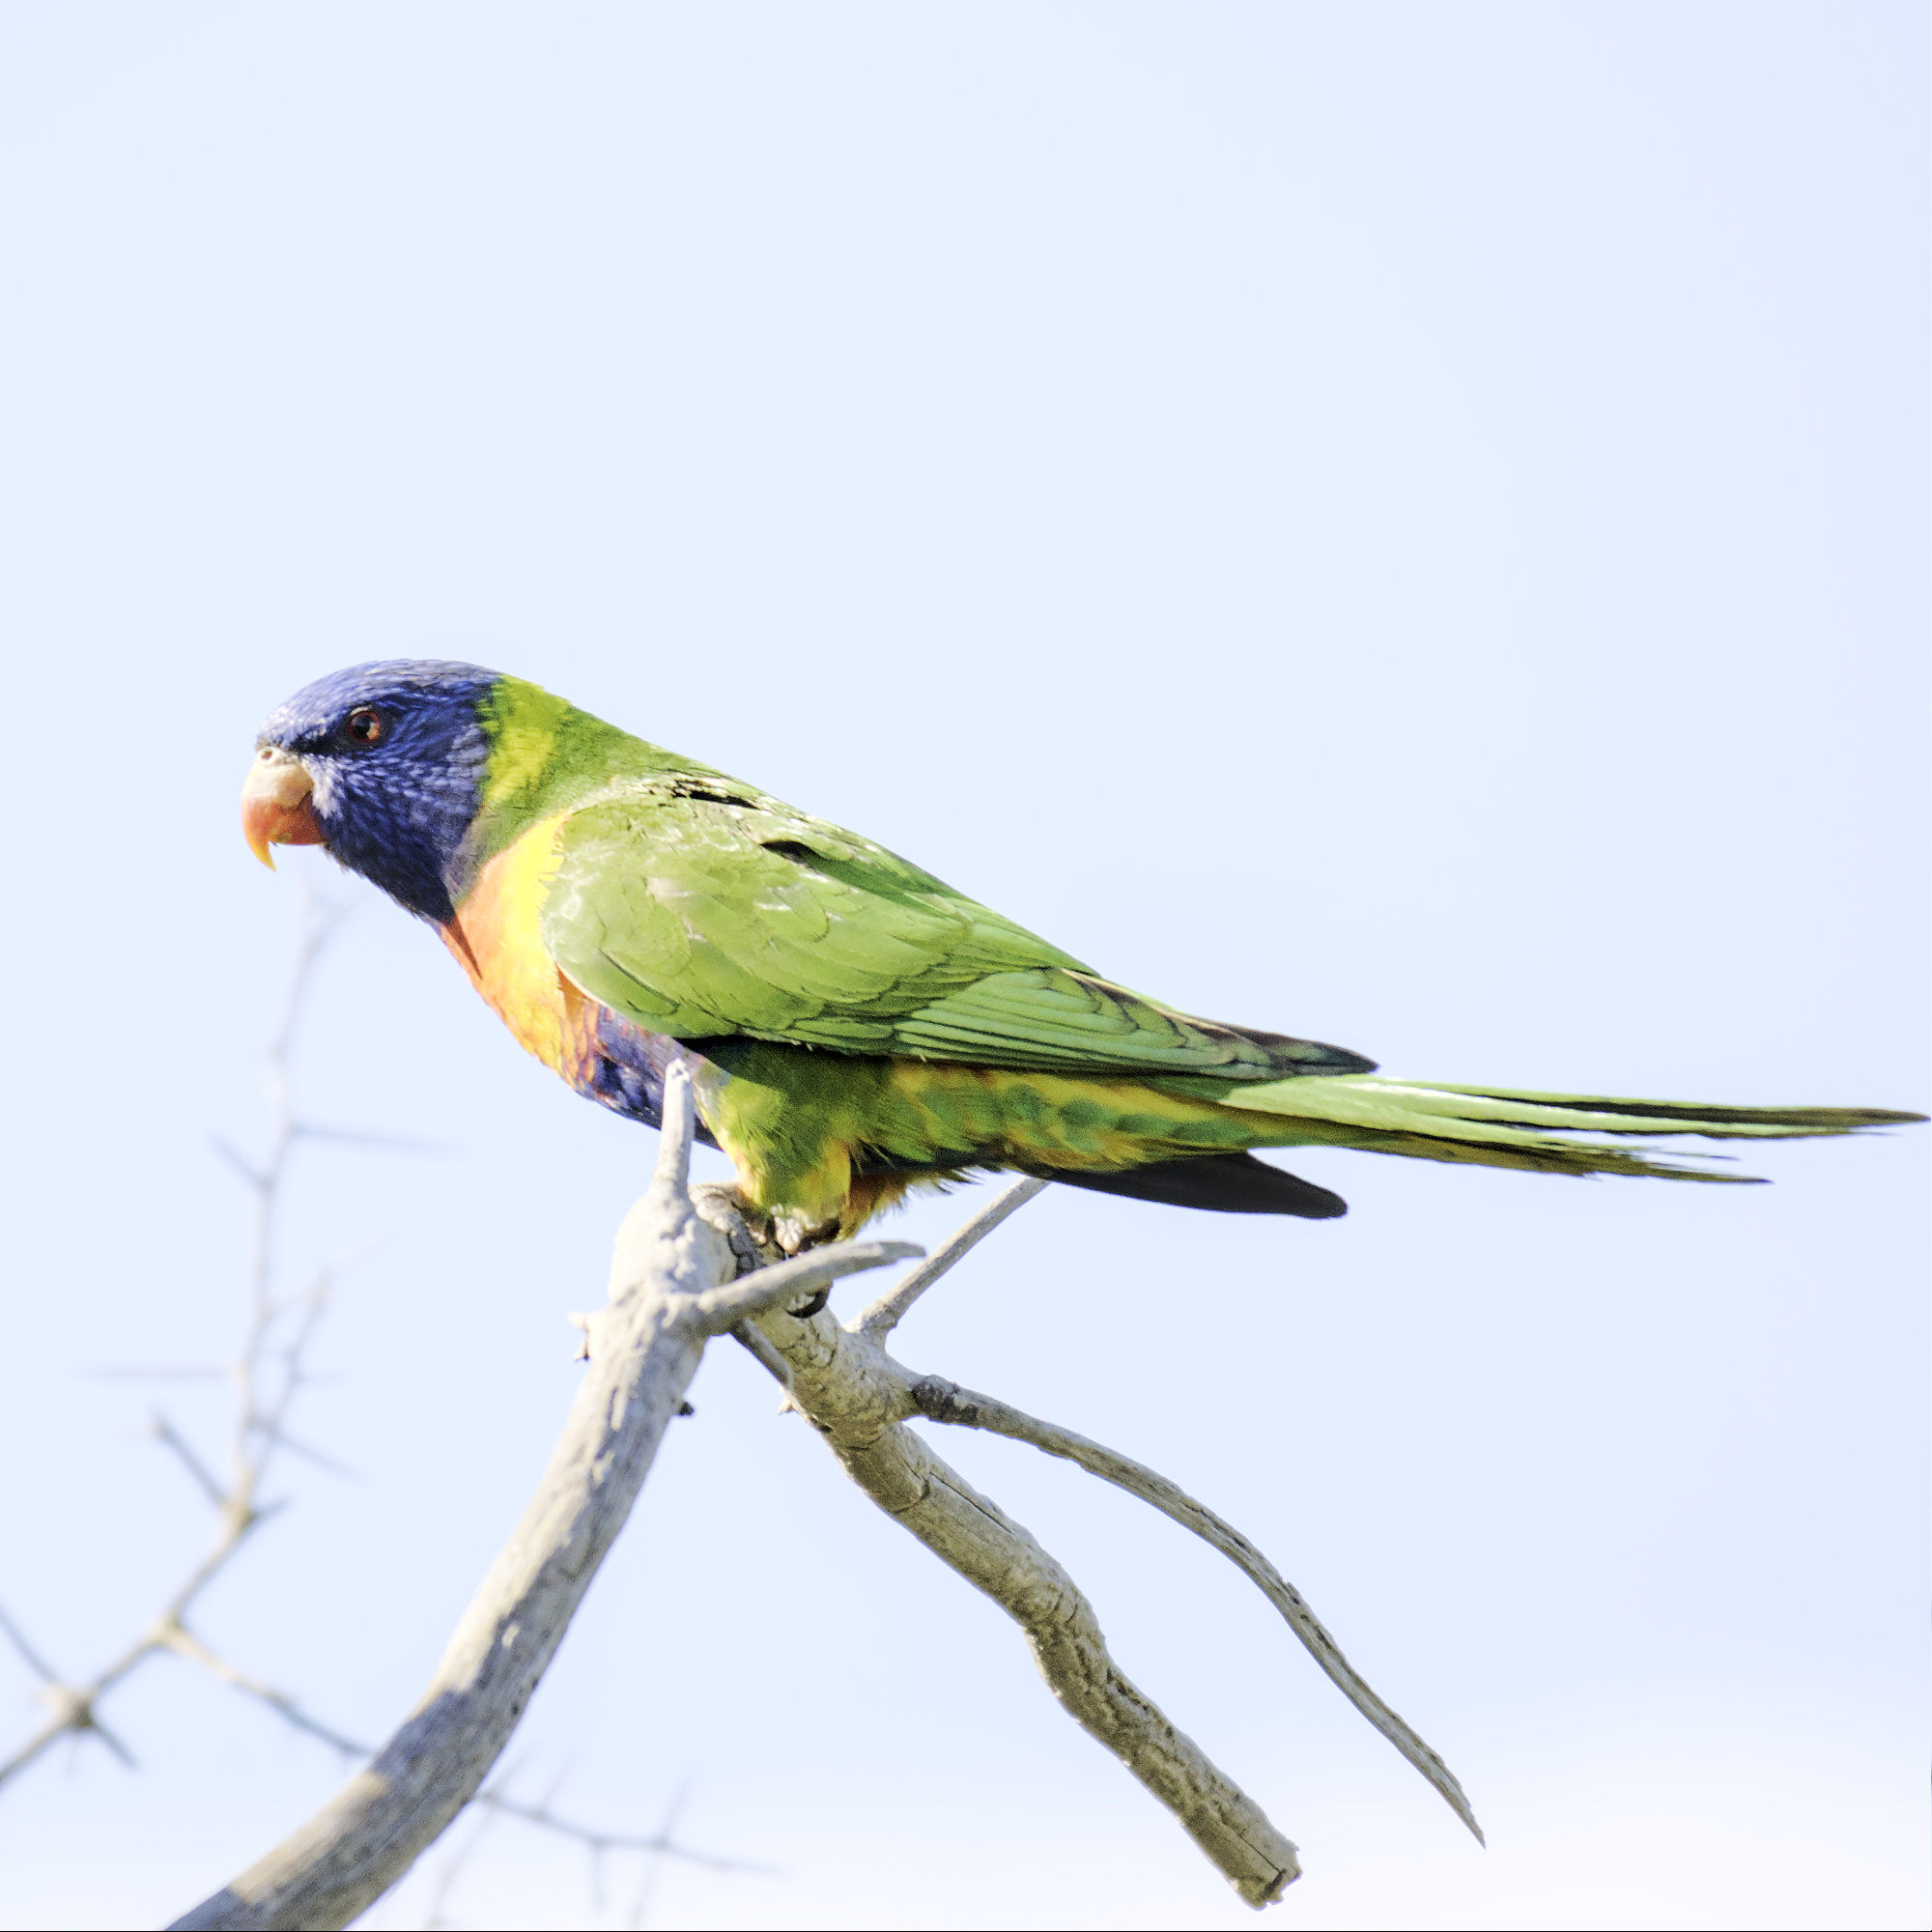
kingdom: Animalia
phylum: Chordata
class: Aves
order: Psittaciformes
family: Psittacidae
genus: Trichoglossus
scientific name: Trichoglossus haematodus
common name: Coconut lorikeet
